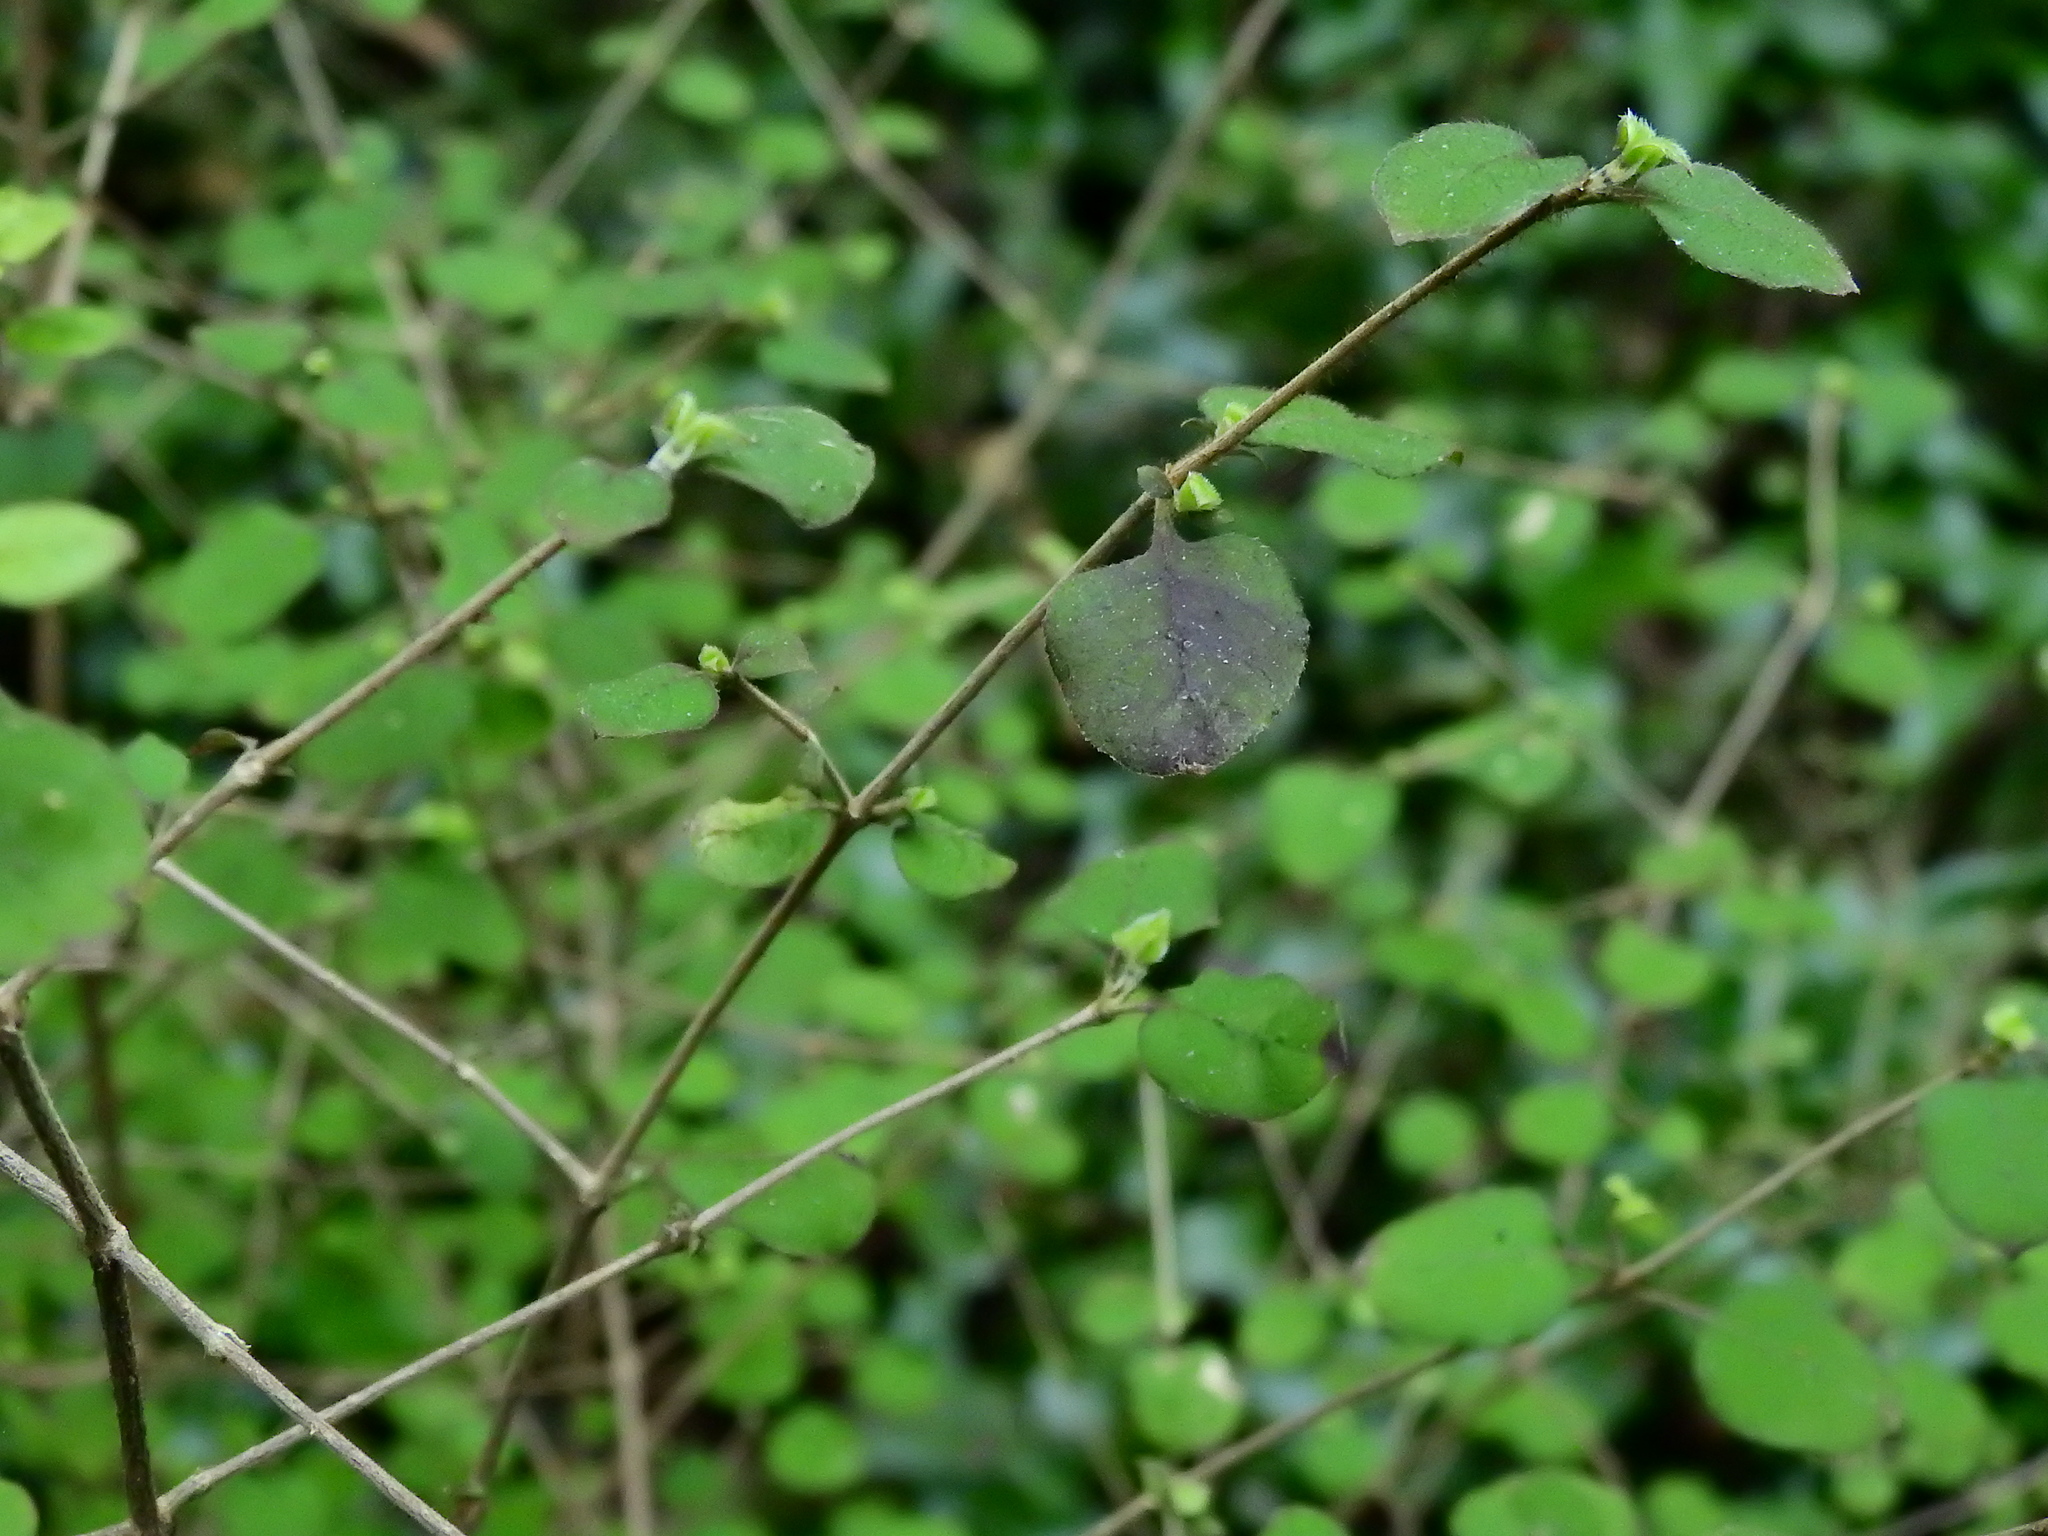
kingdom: Plantae
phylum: Tracheophyta
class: Magnoliopsida
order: Gentianales
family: Rubiaceae
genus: Coprosma
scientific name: Coprosma rotundifolia
